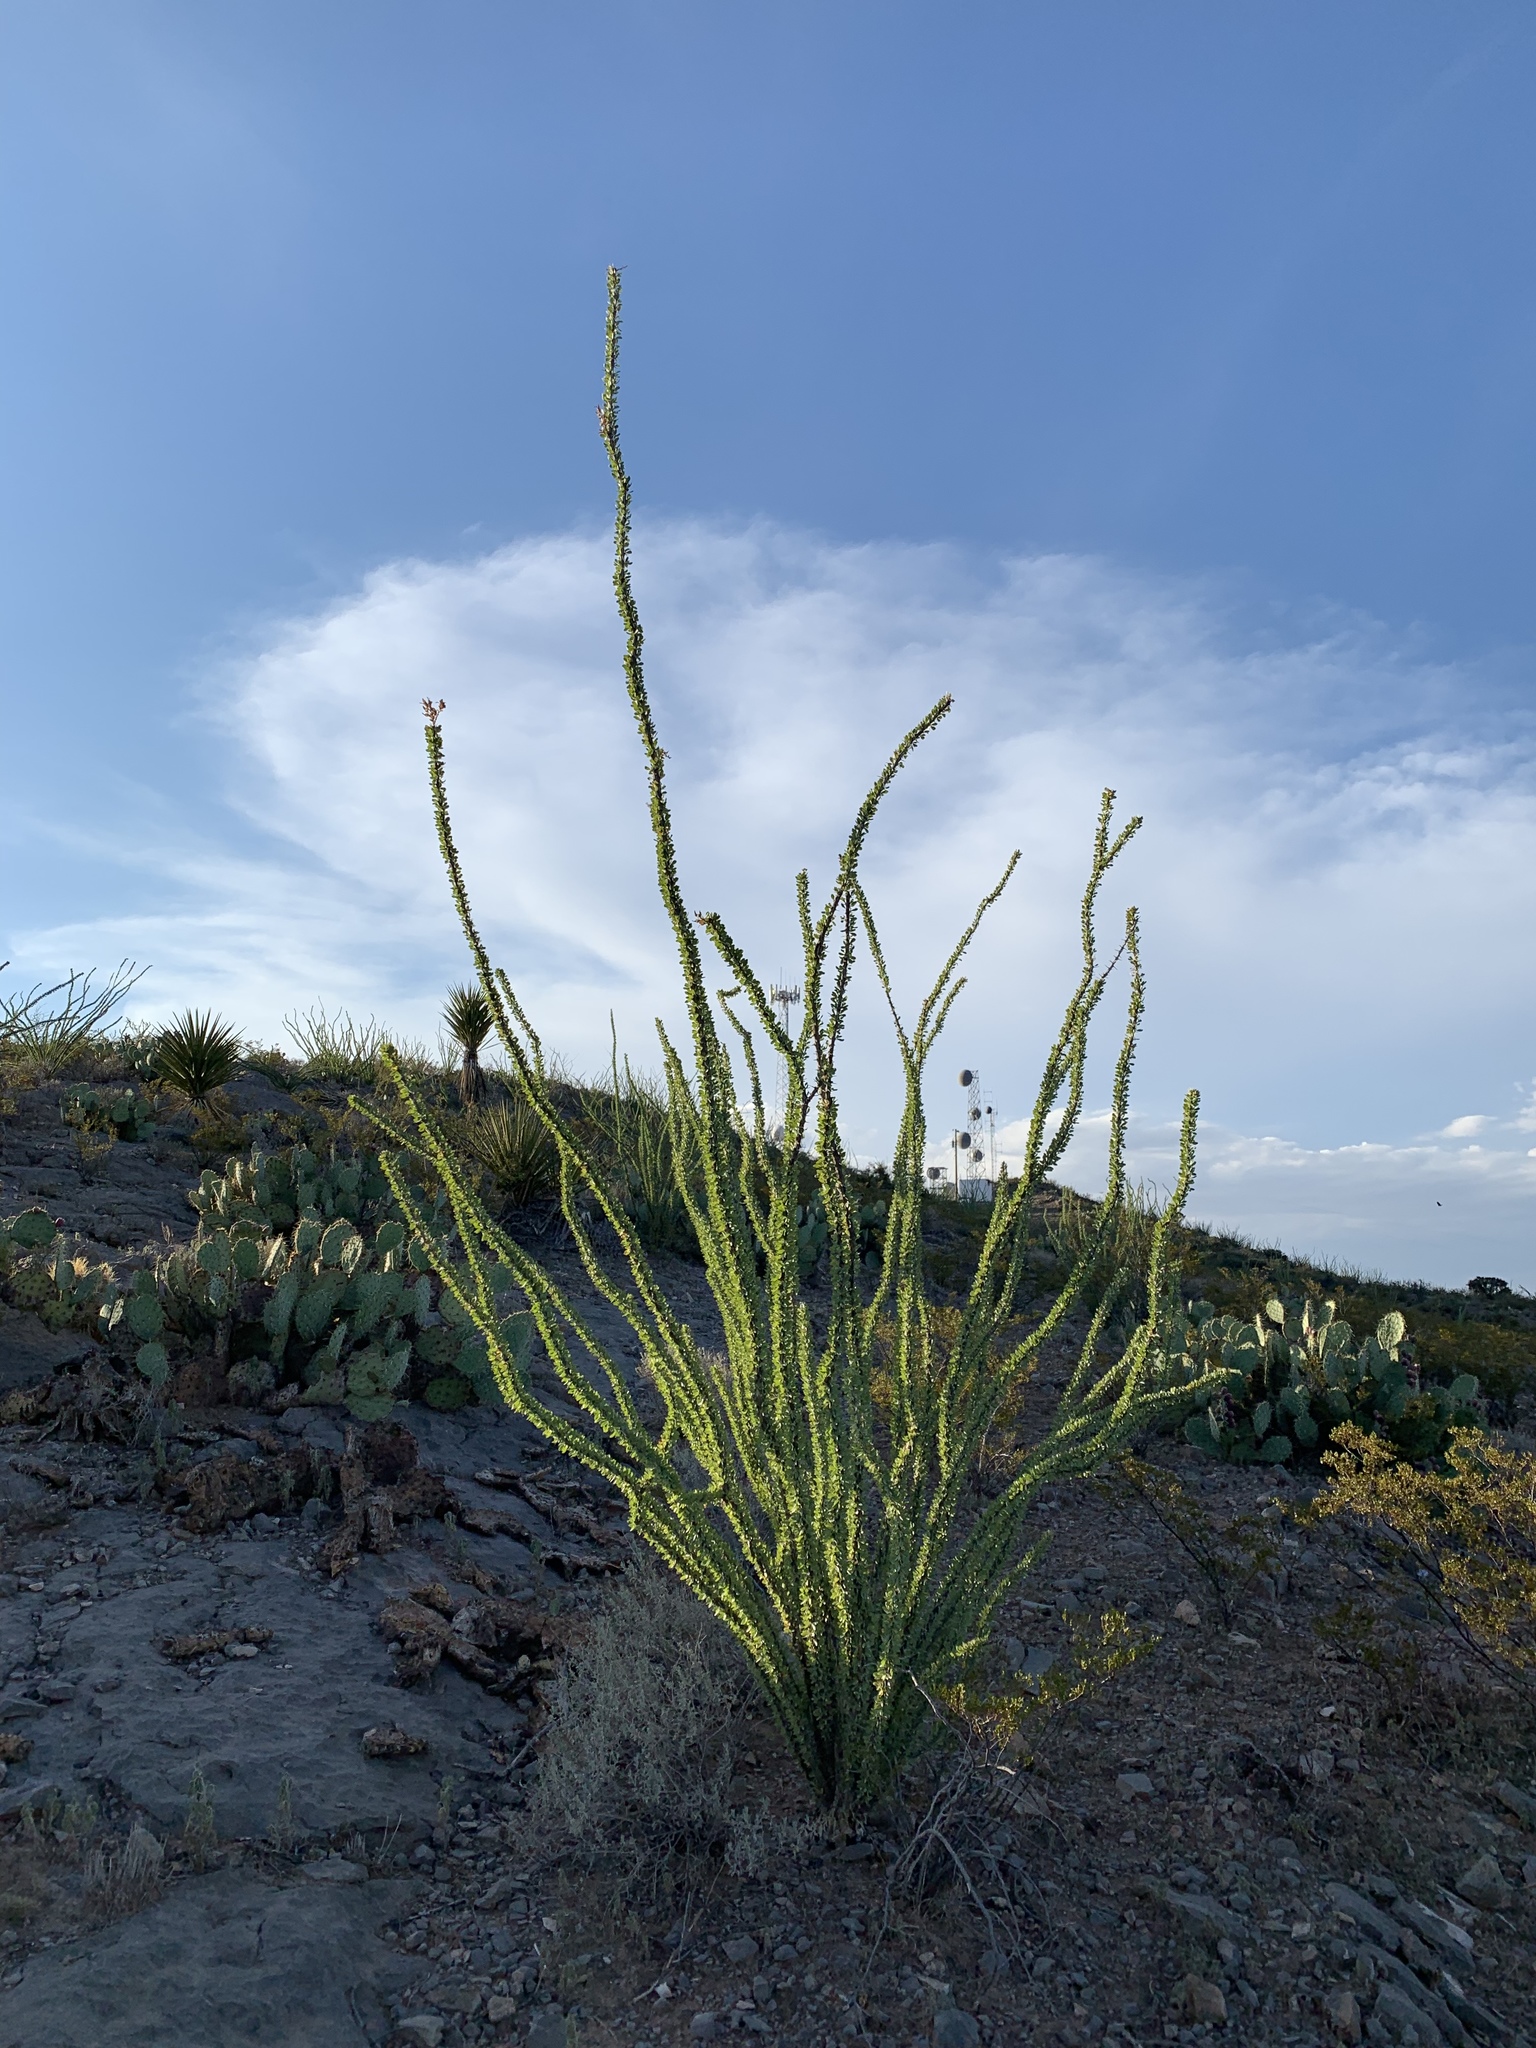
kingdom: Plantae
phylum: Tracheophyta
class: Magnoliopsida
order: Ericales
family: Fouquieriaceae
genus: Fouquieria
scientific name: Fouquieria splendens
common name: Vine-cactus
